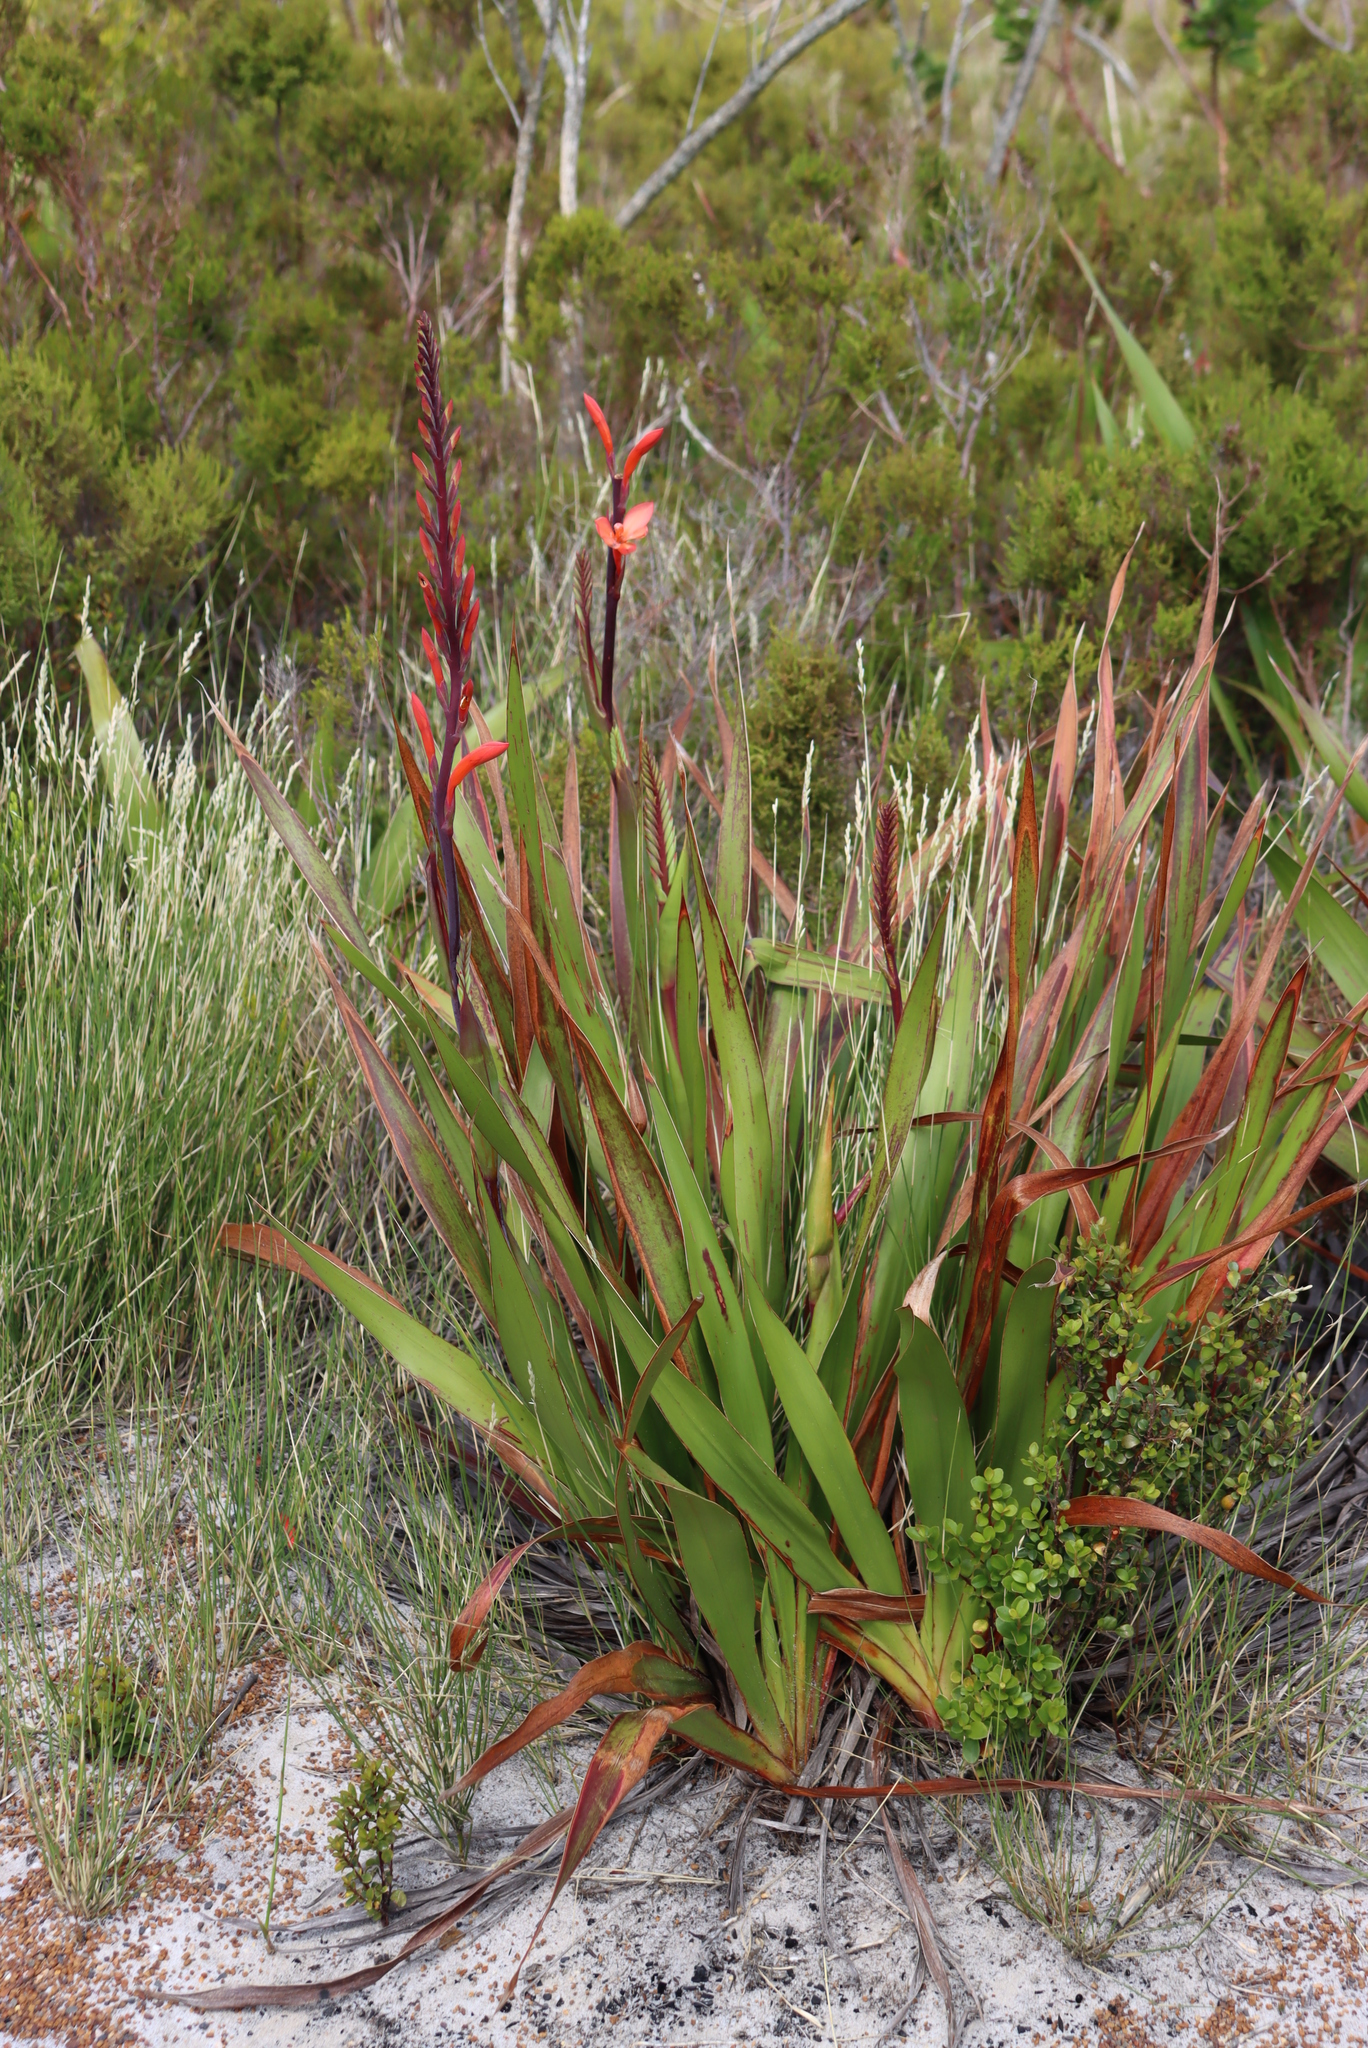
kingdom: Plantae
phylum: Tracheophyta
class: Liliopsida
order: Asparagales
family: Iridaceae
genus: Watsonia
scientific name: Watsonia tabularis
